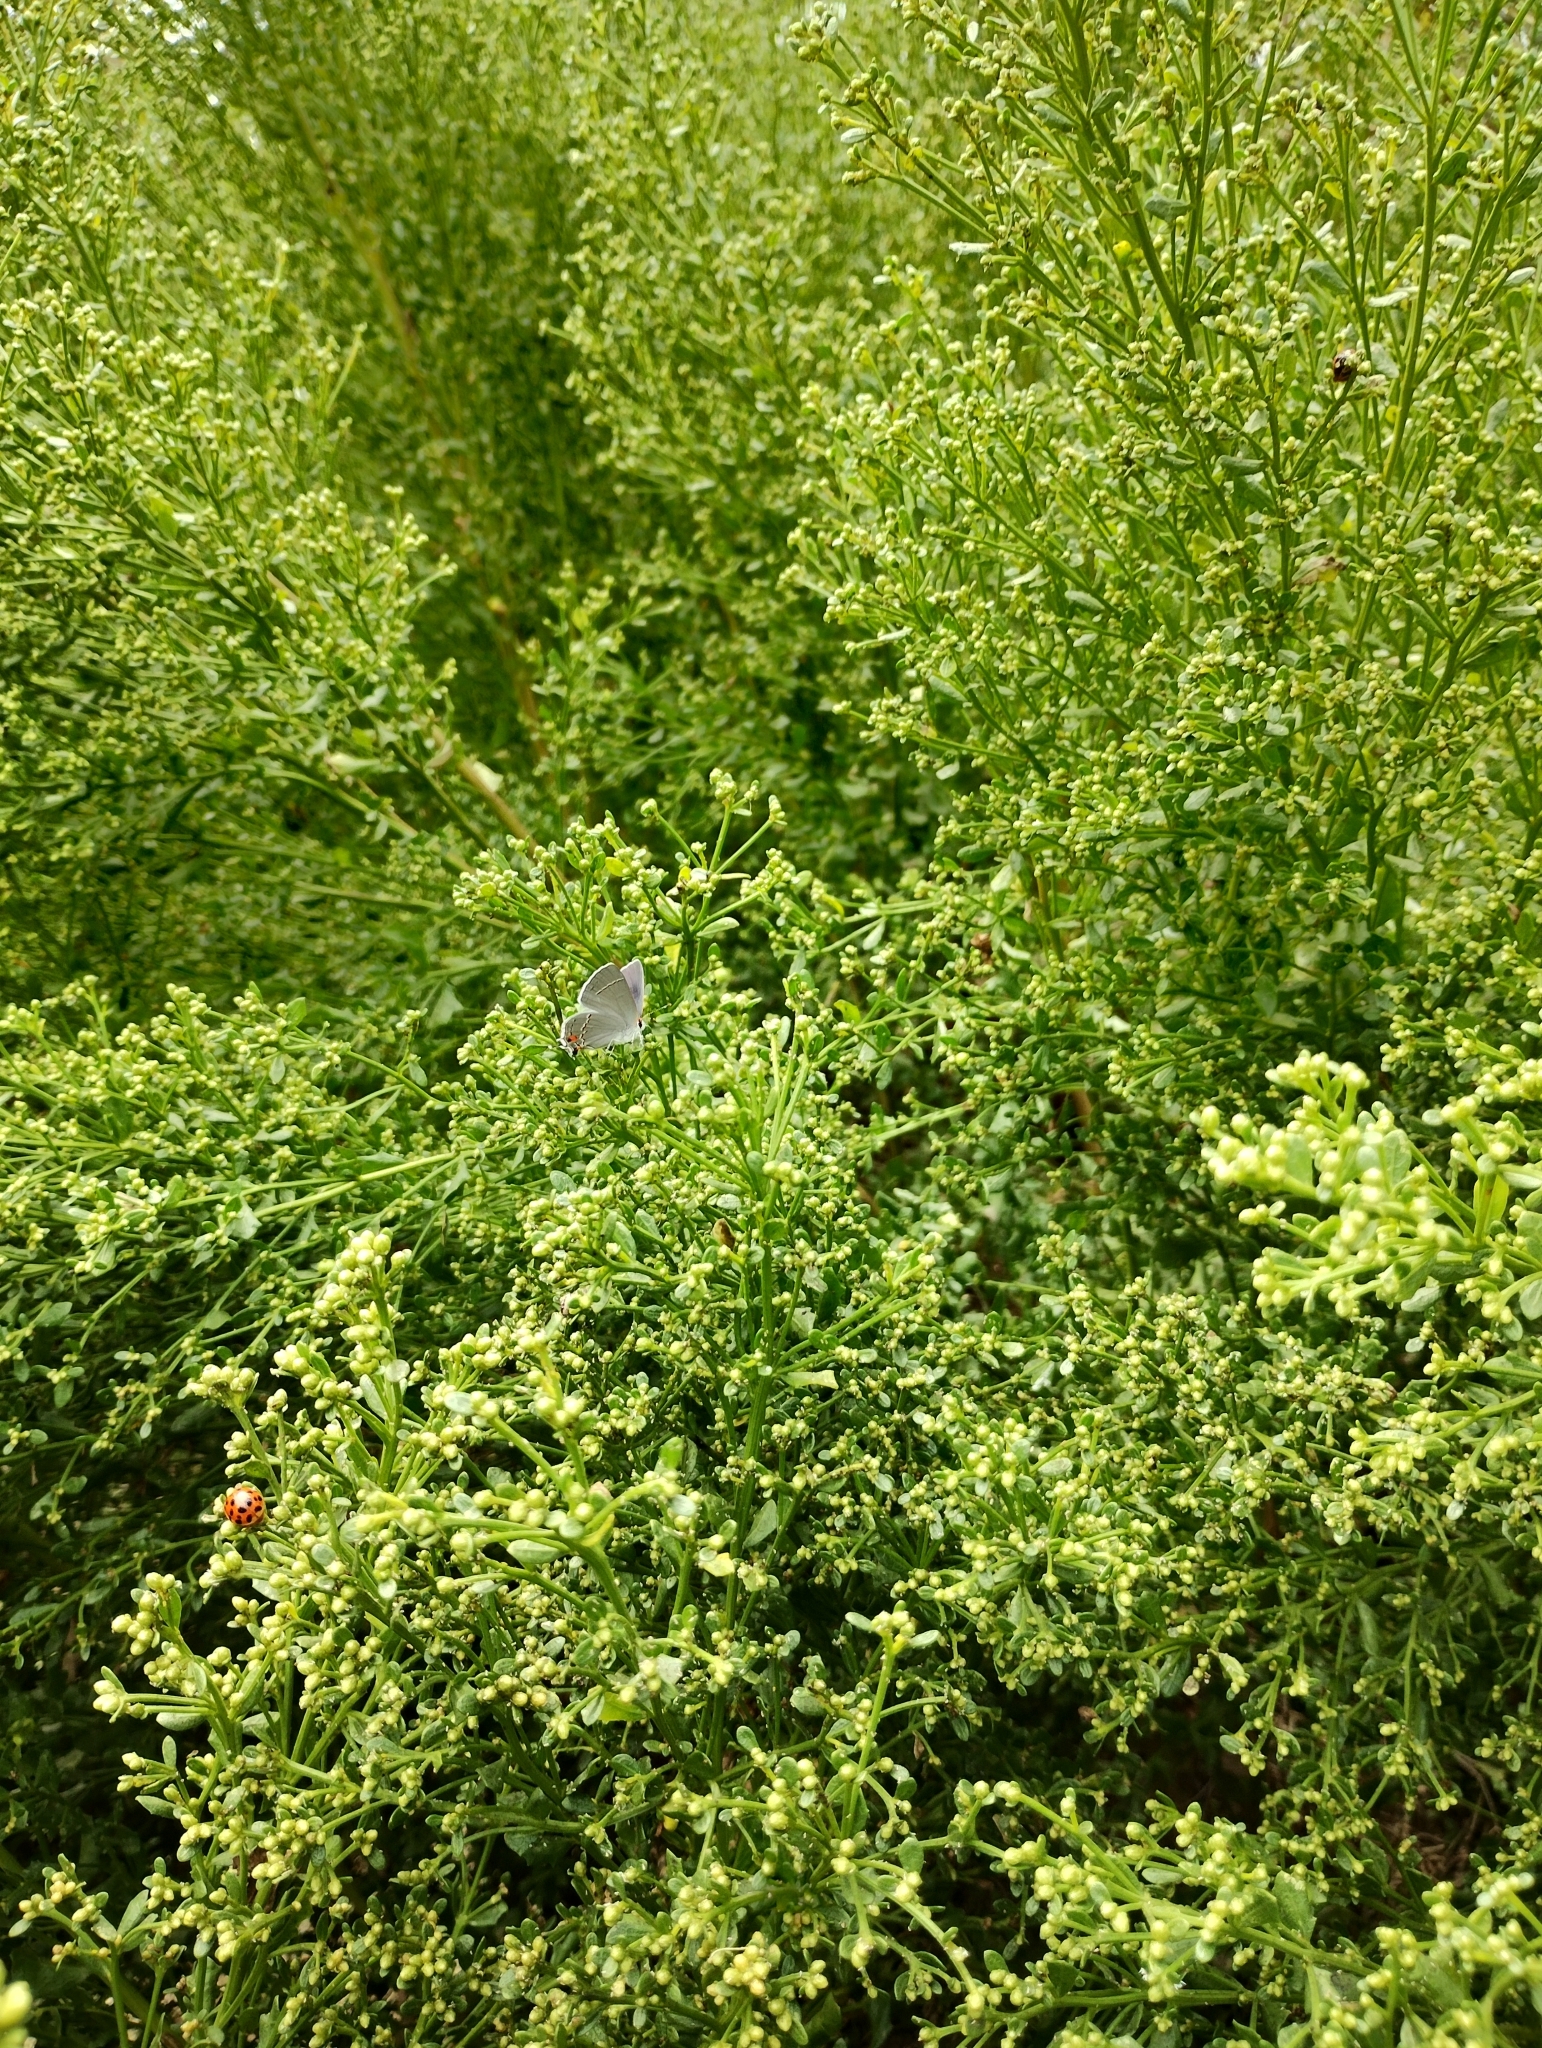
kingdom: Animalia
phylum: Arthropoda
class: Insecta
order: Lepidoptera
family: Lycaenidae
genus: Strymon
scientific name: Strymon melinus
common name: Gray hairstreak
